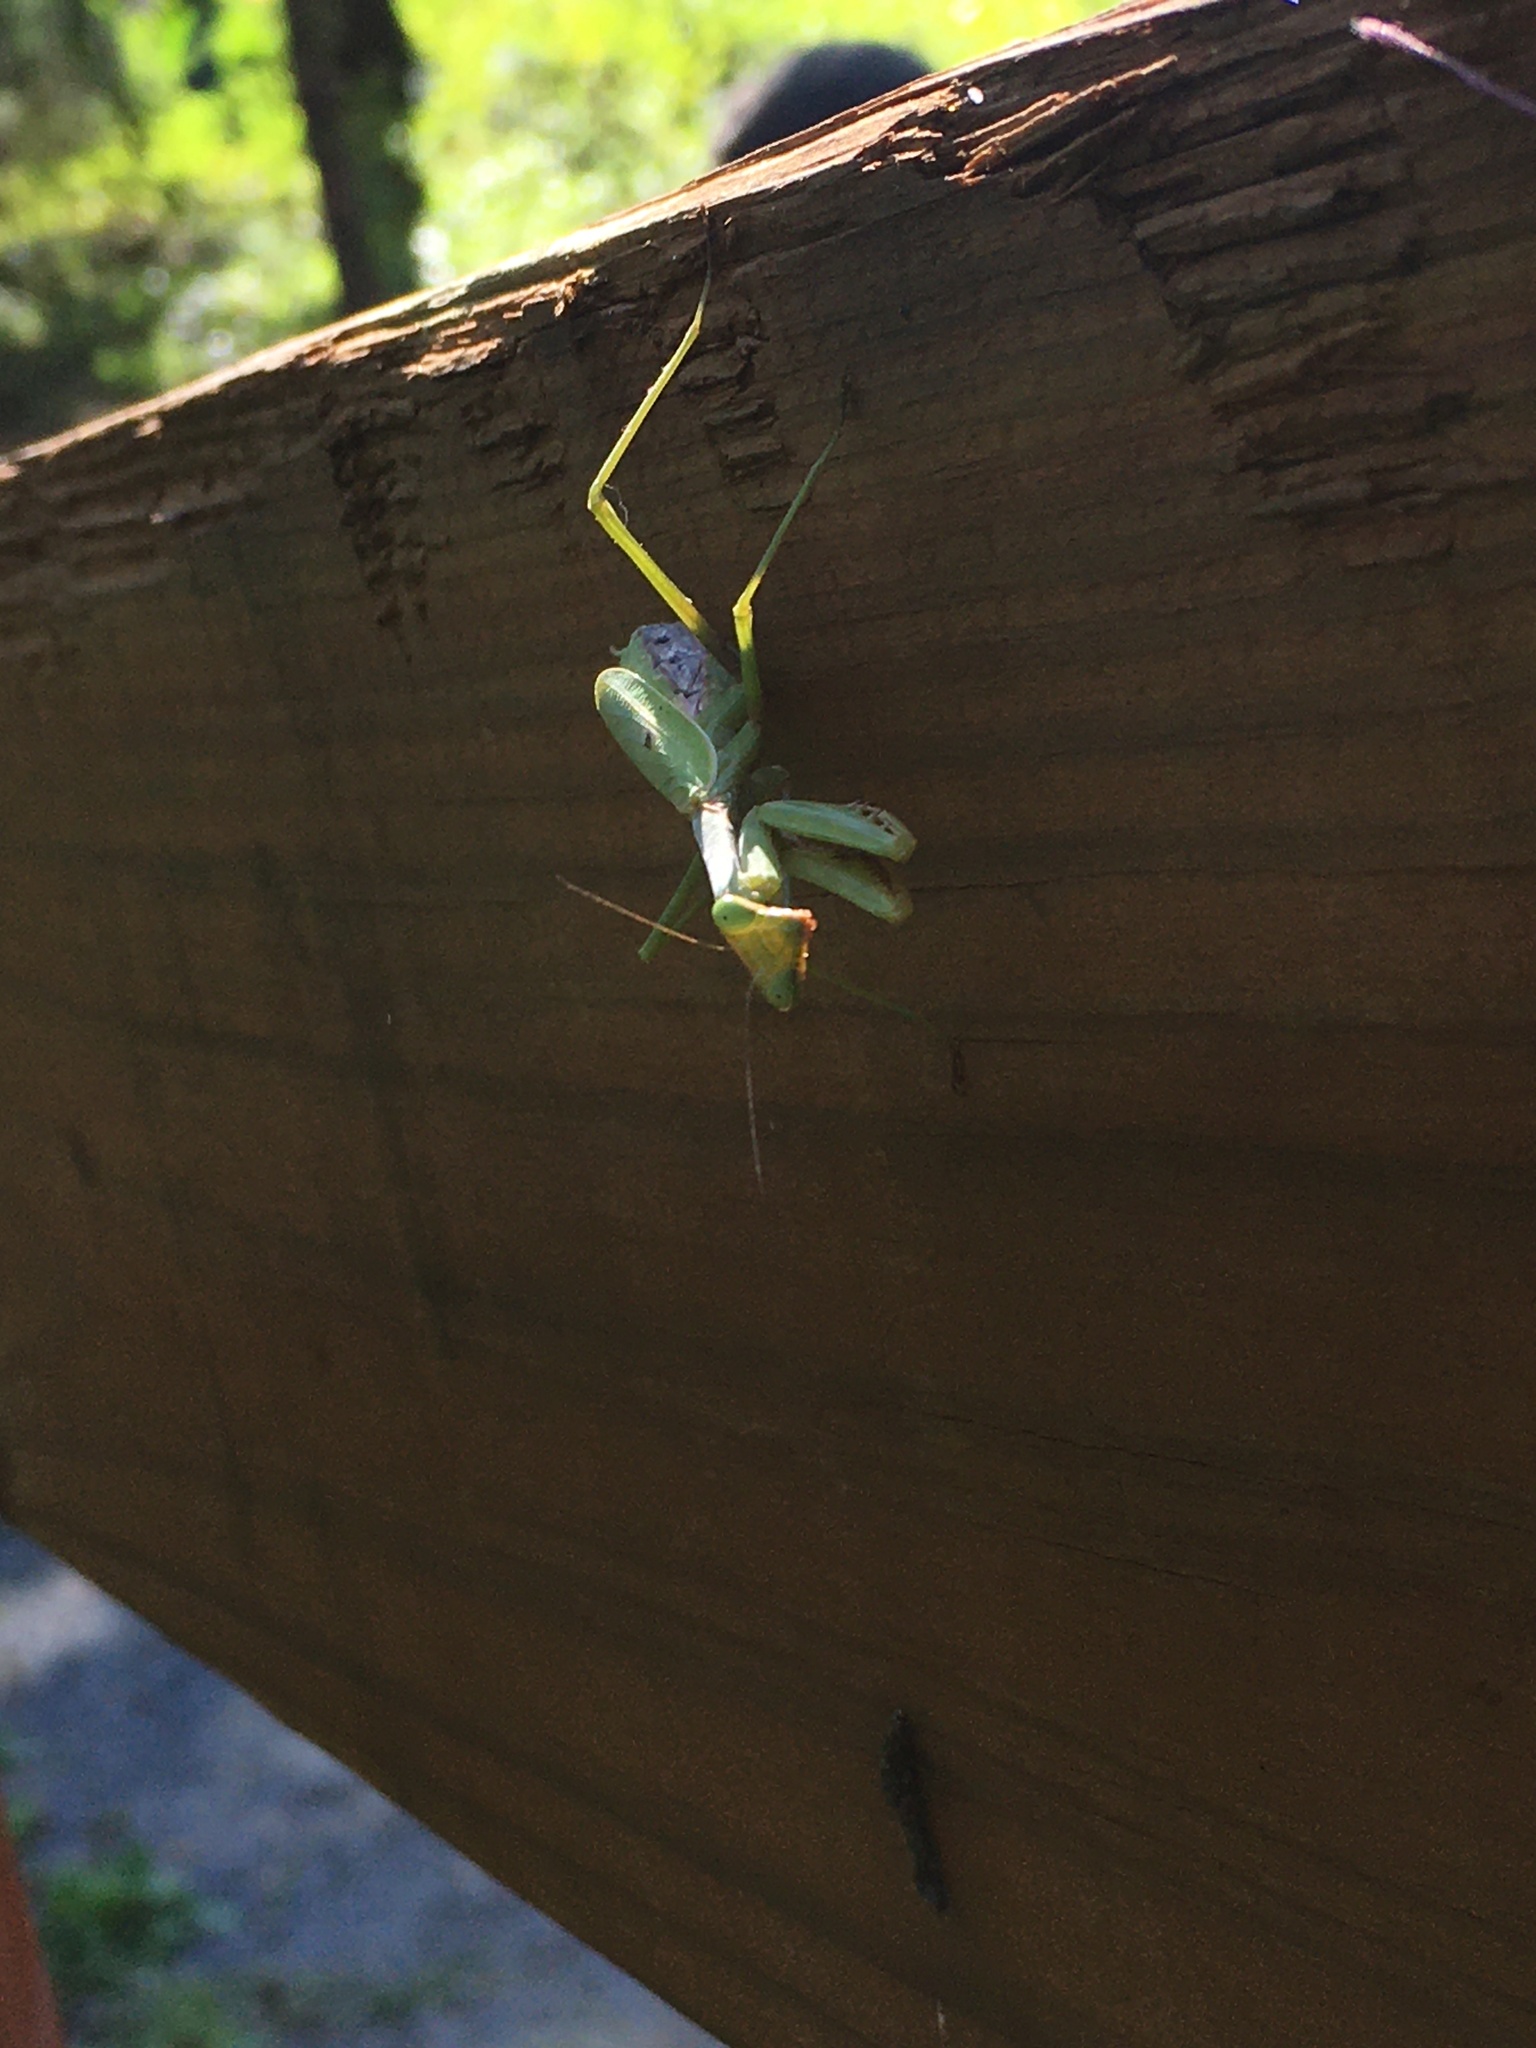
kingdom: Animalia
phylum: Arthropoda
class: Insecta
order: Mantodea
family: Mantidae
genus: Stagmomantis
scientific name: Stagmomantis carolina
